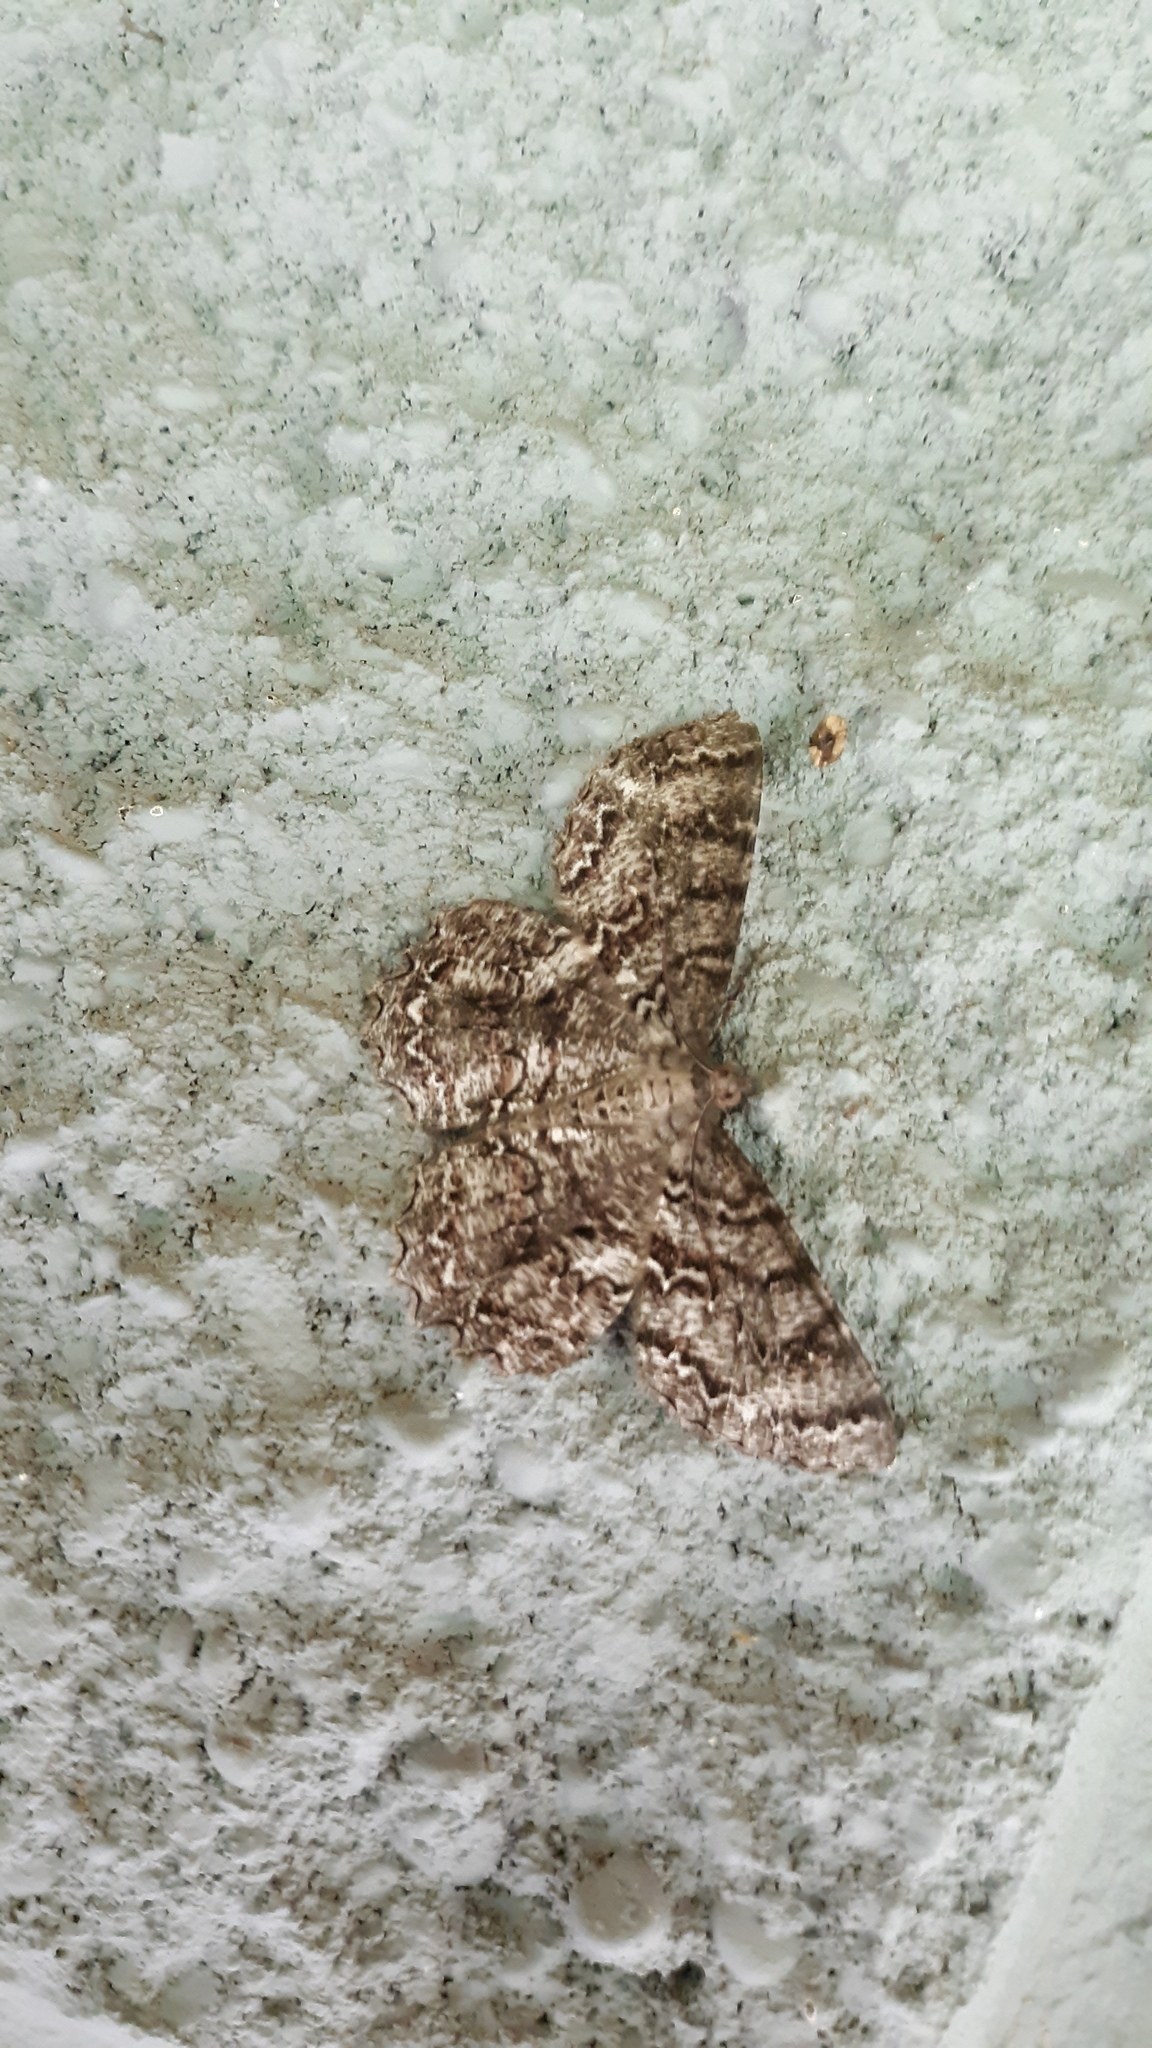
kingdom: Animalia
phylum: Arthropoda
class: Insecta
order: Lepidoptera
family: Geometridae
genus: Epimecis
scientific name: Epimecis hortaria
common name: Tulip-tree beauty
